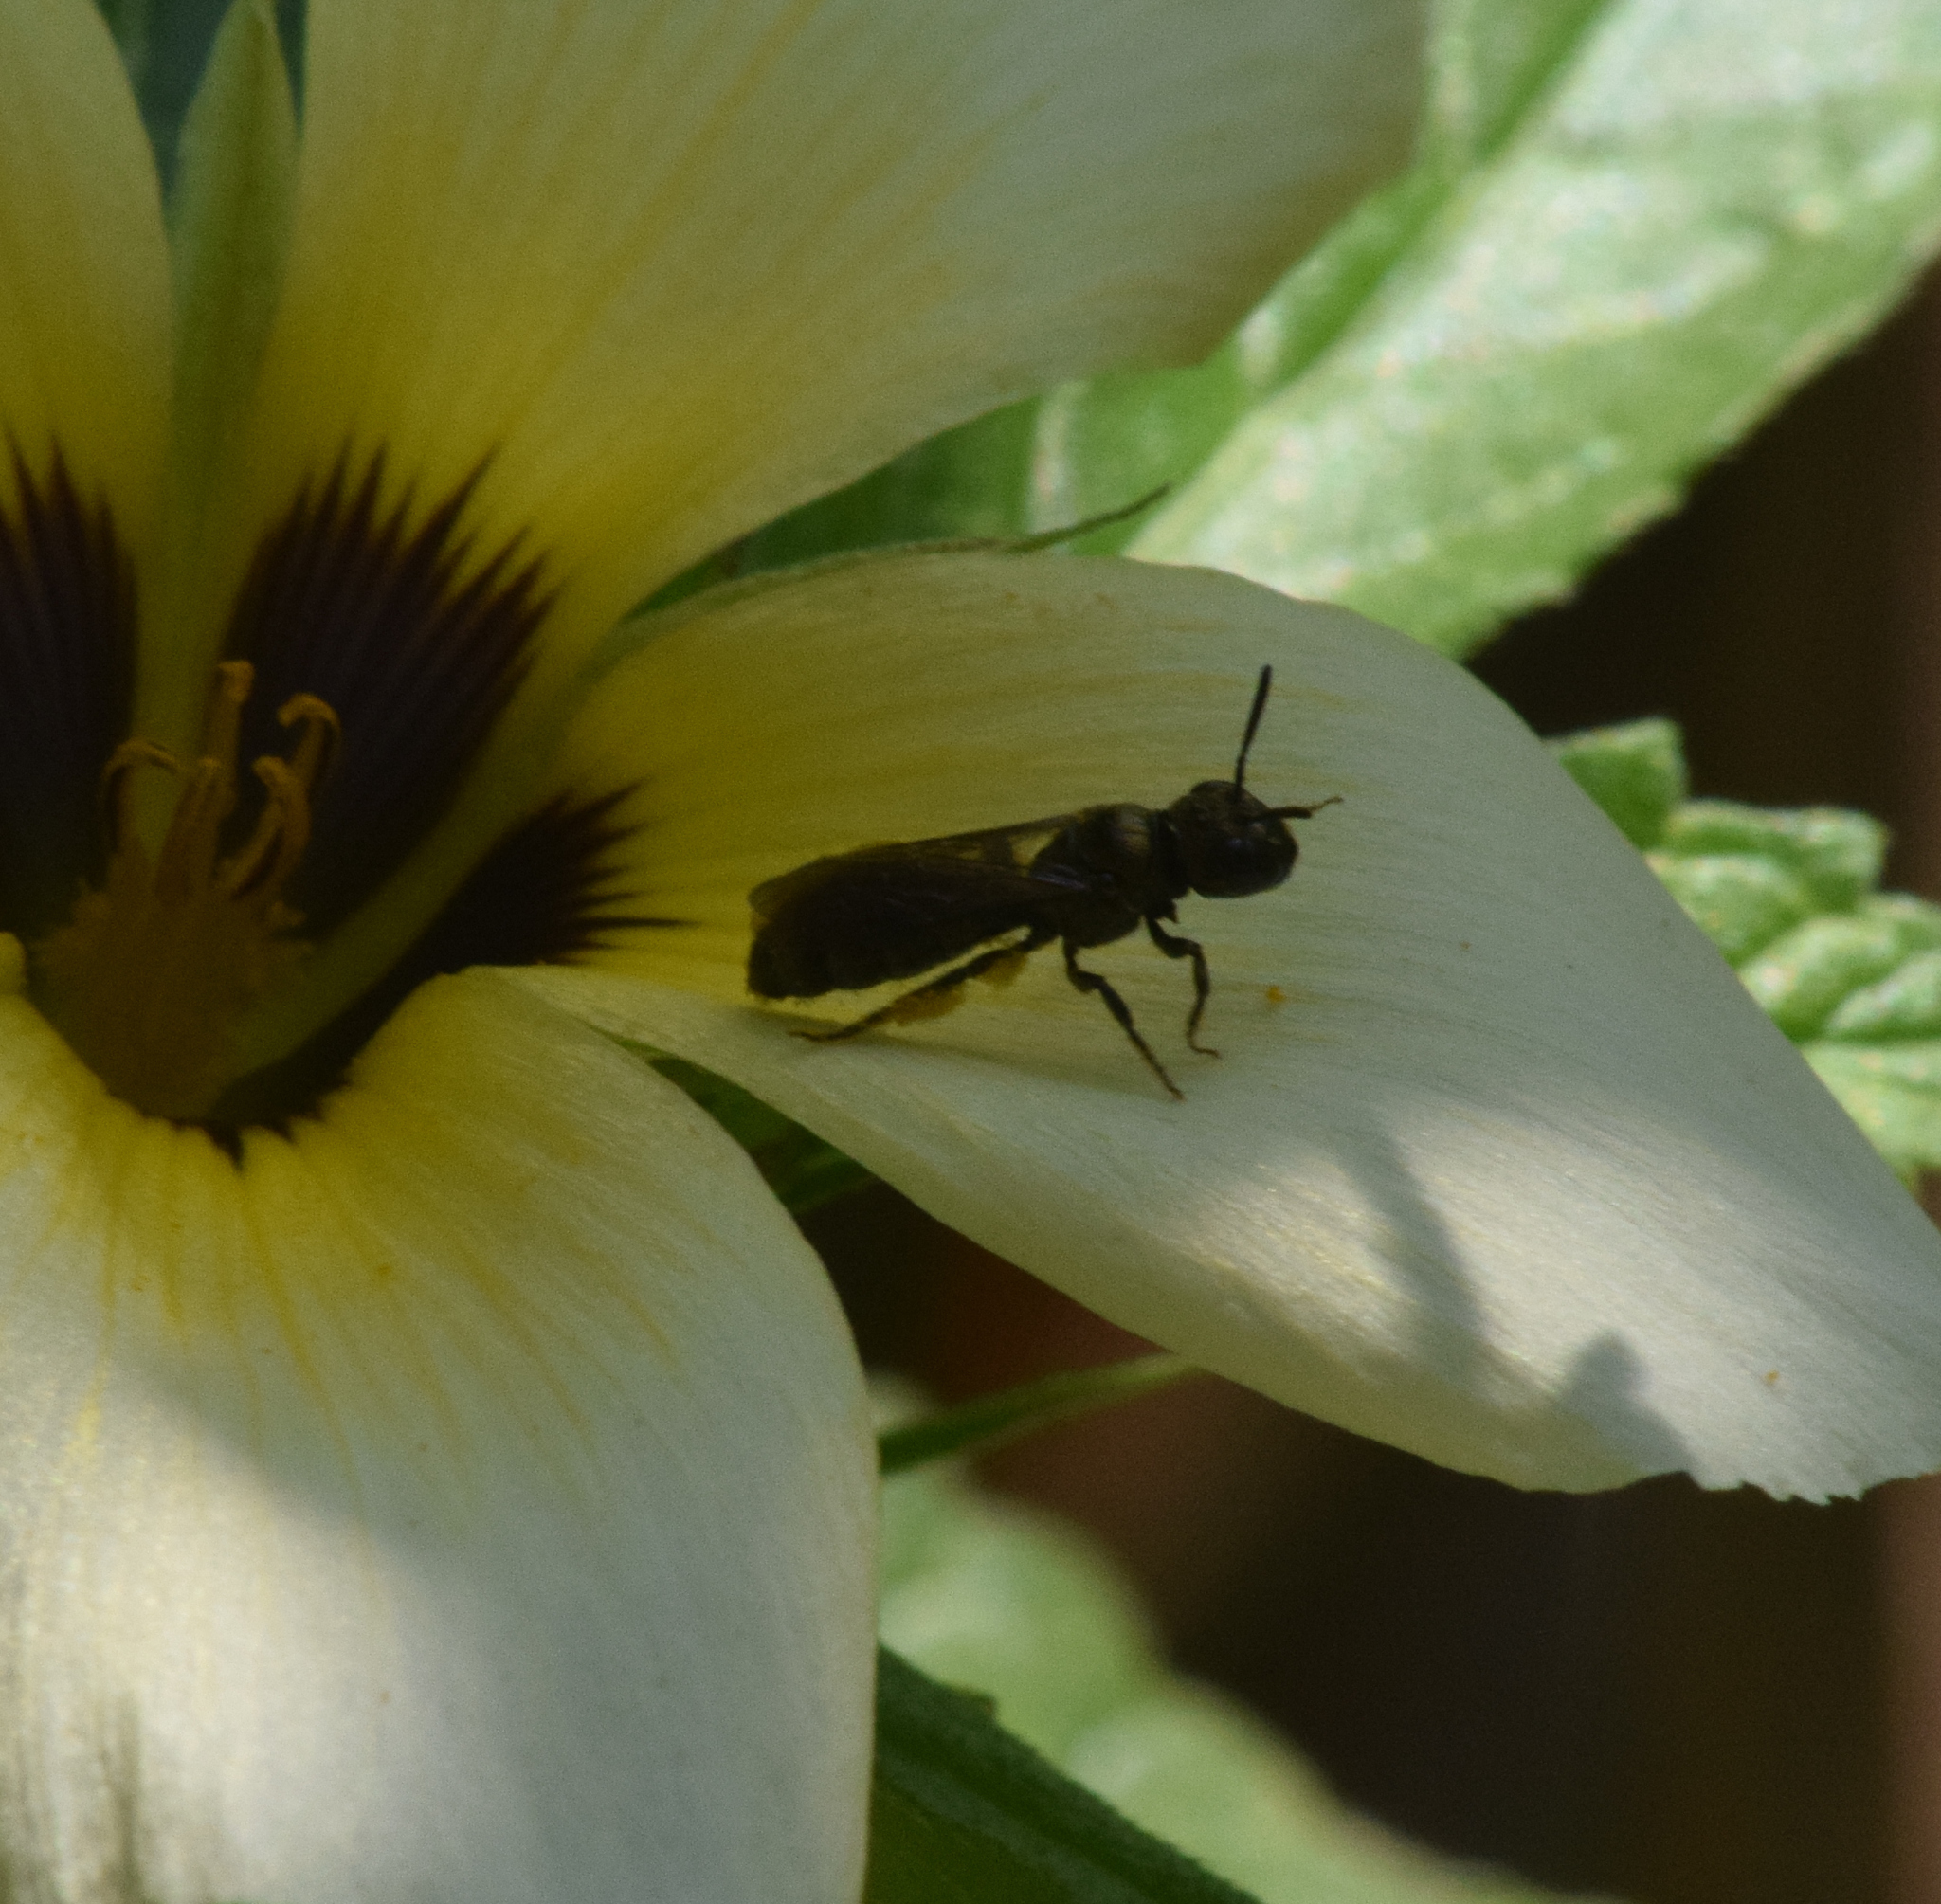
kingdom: Animalia
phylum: Arthropoda
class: Insecta
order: Hymenoptera
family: Apidae
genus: Ceratina
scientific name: Ceratina
